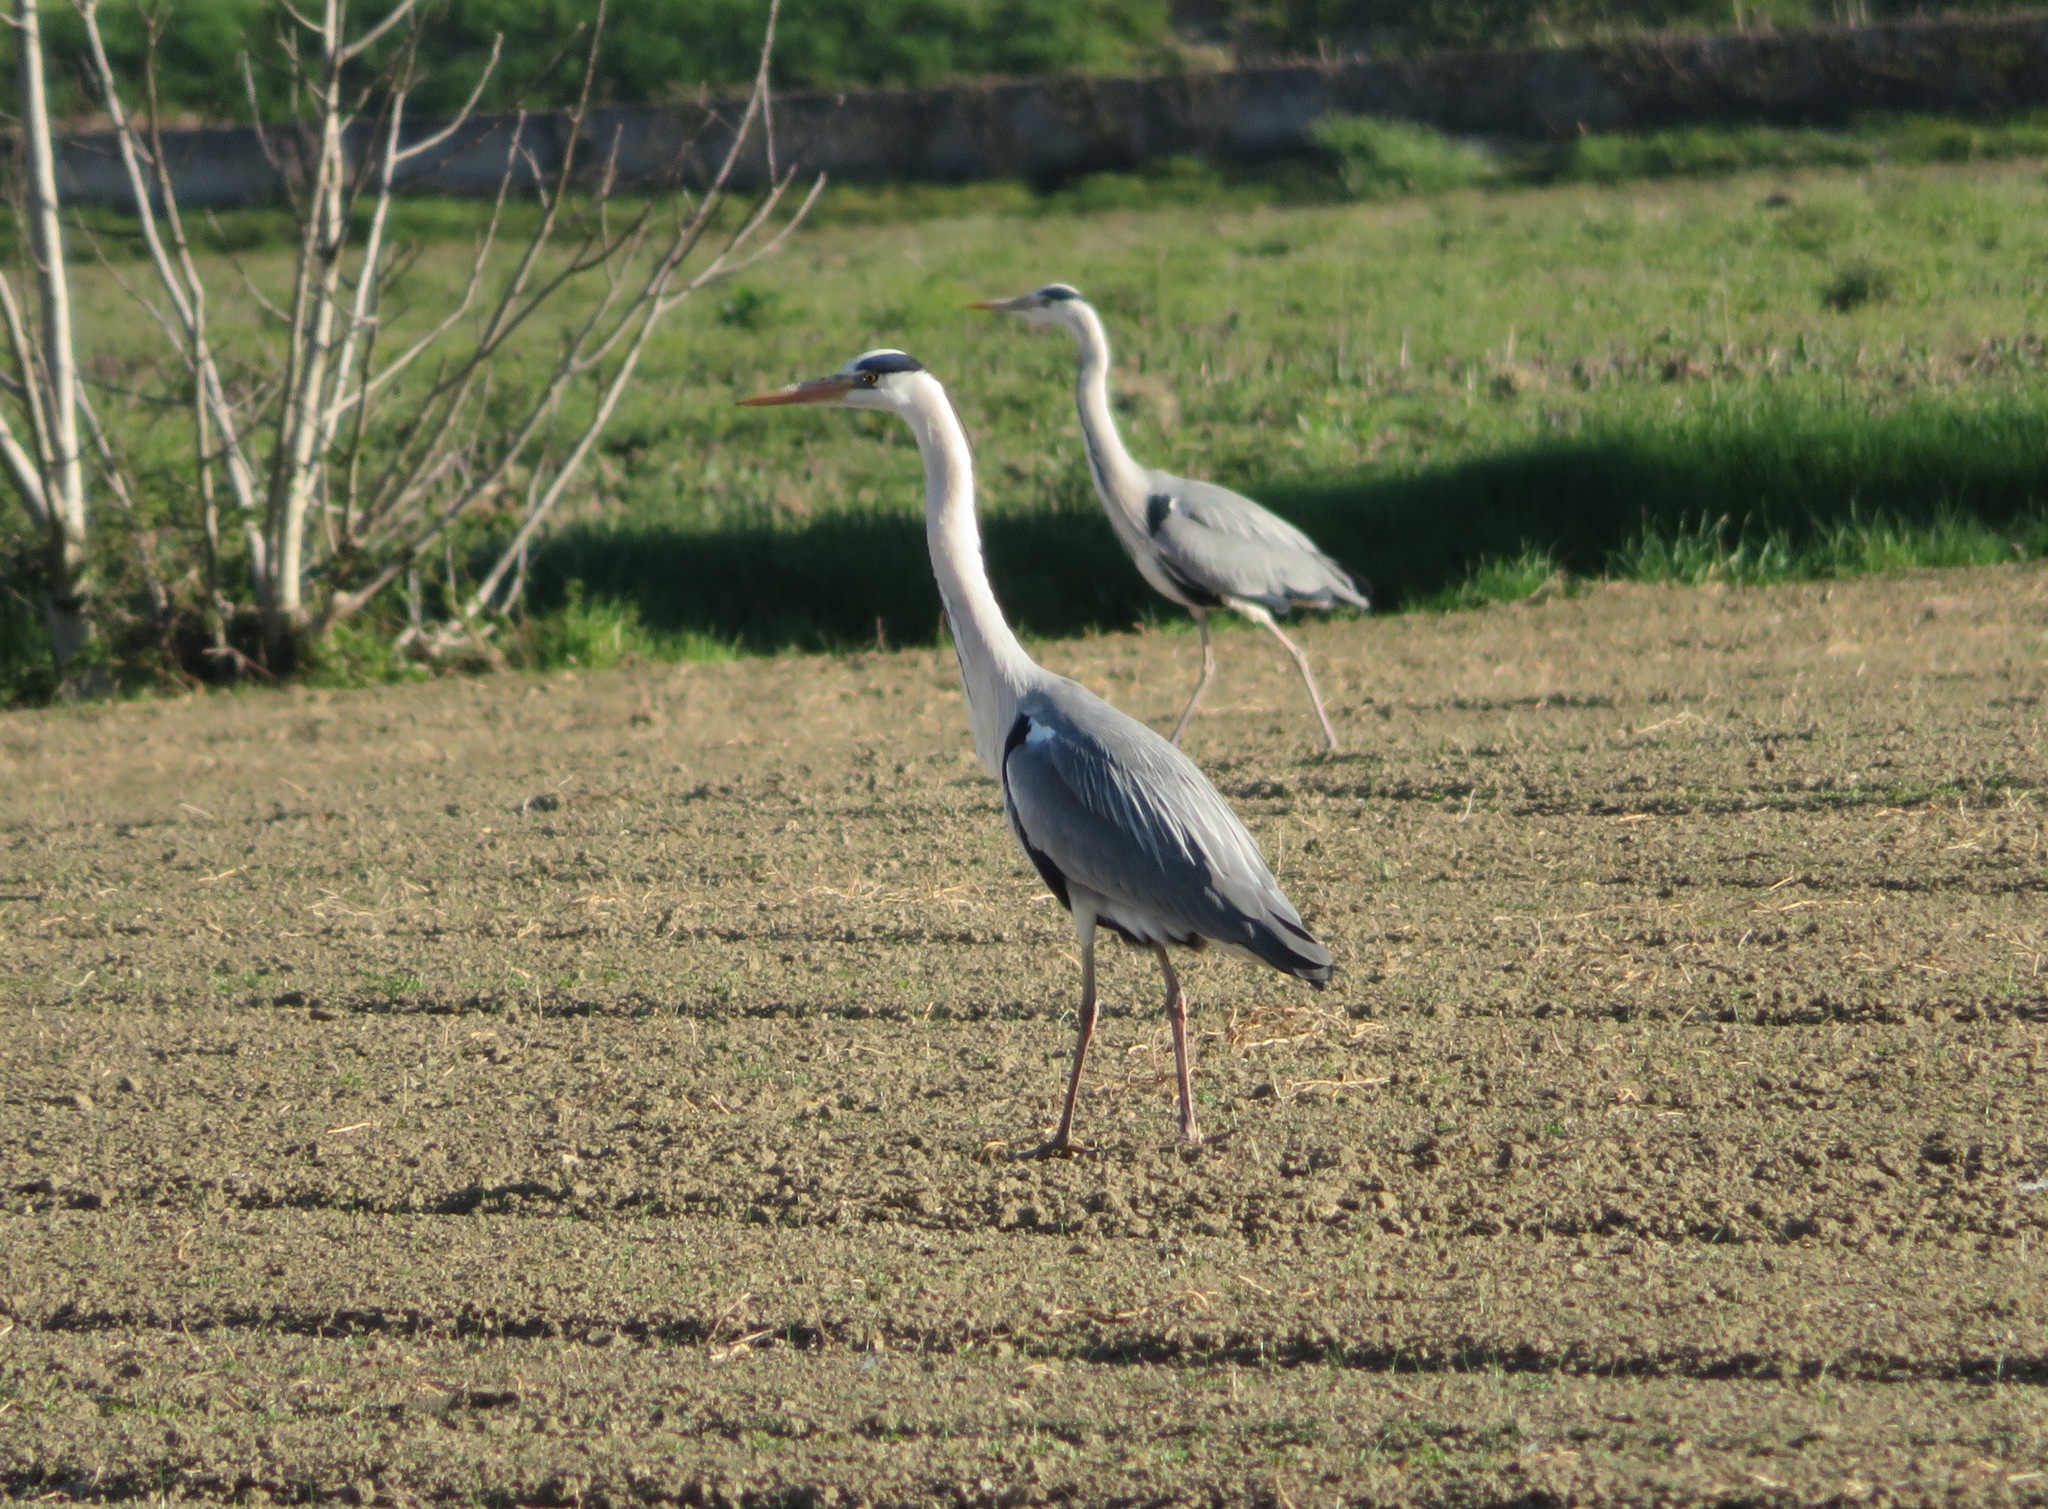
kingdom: Animalia
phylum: Chordata
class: Aves
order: Pelecaniformes
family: Ardeidae
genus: Ardea
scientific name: Ardea cinerea
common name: Grey heron
